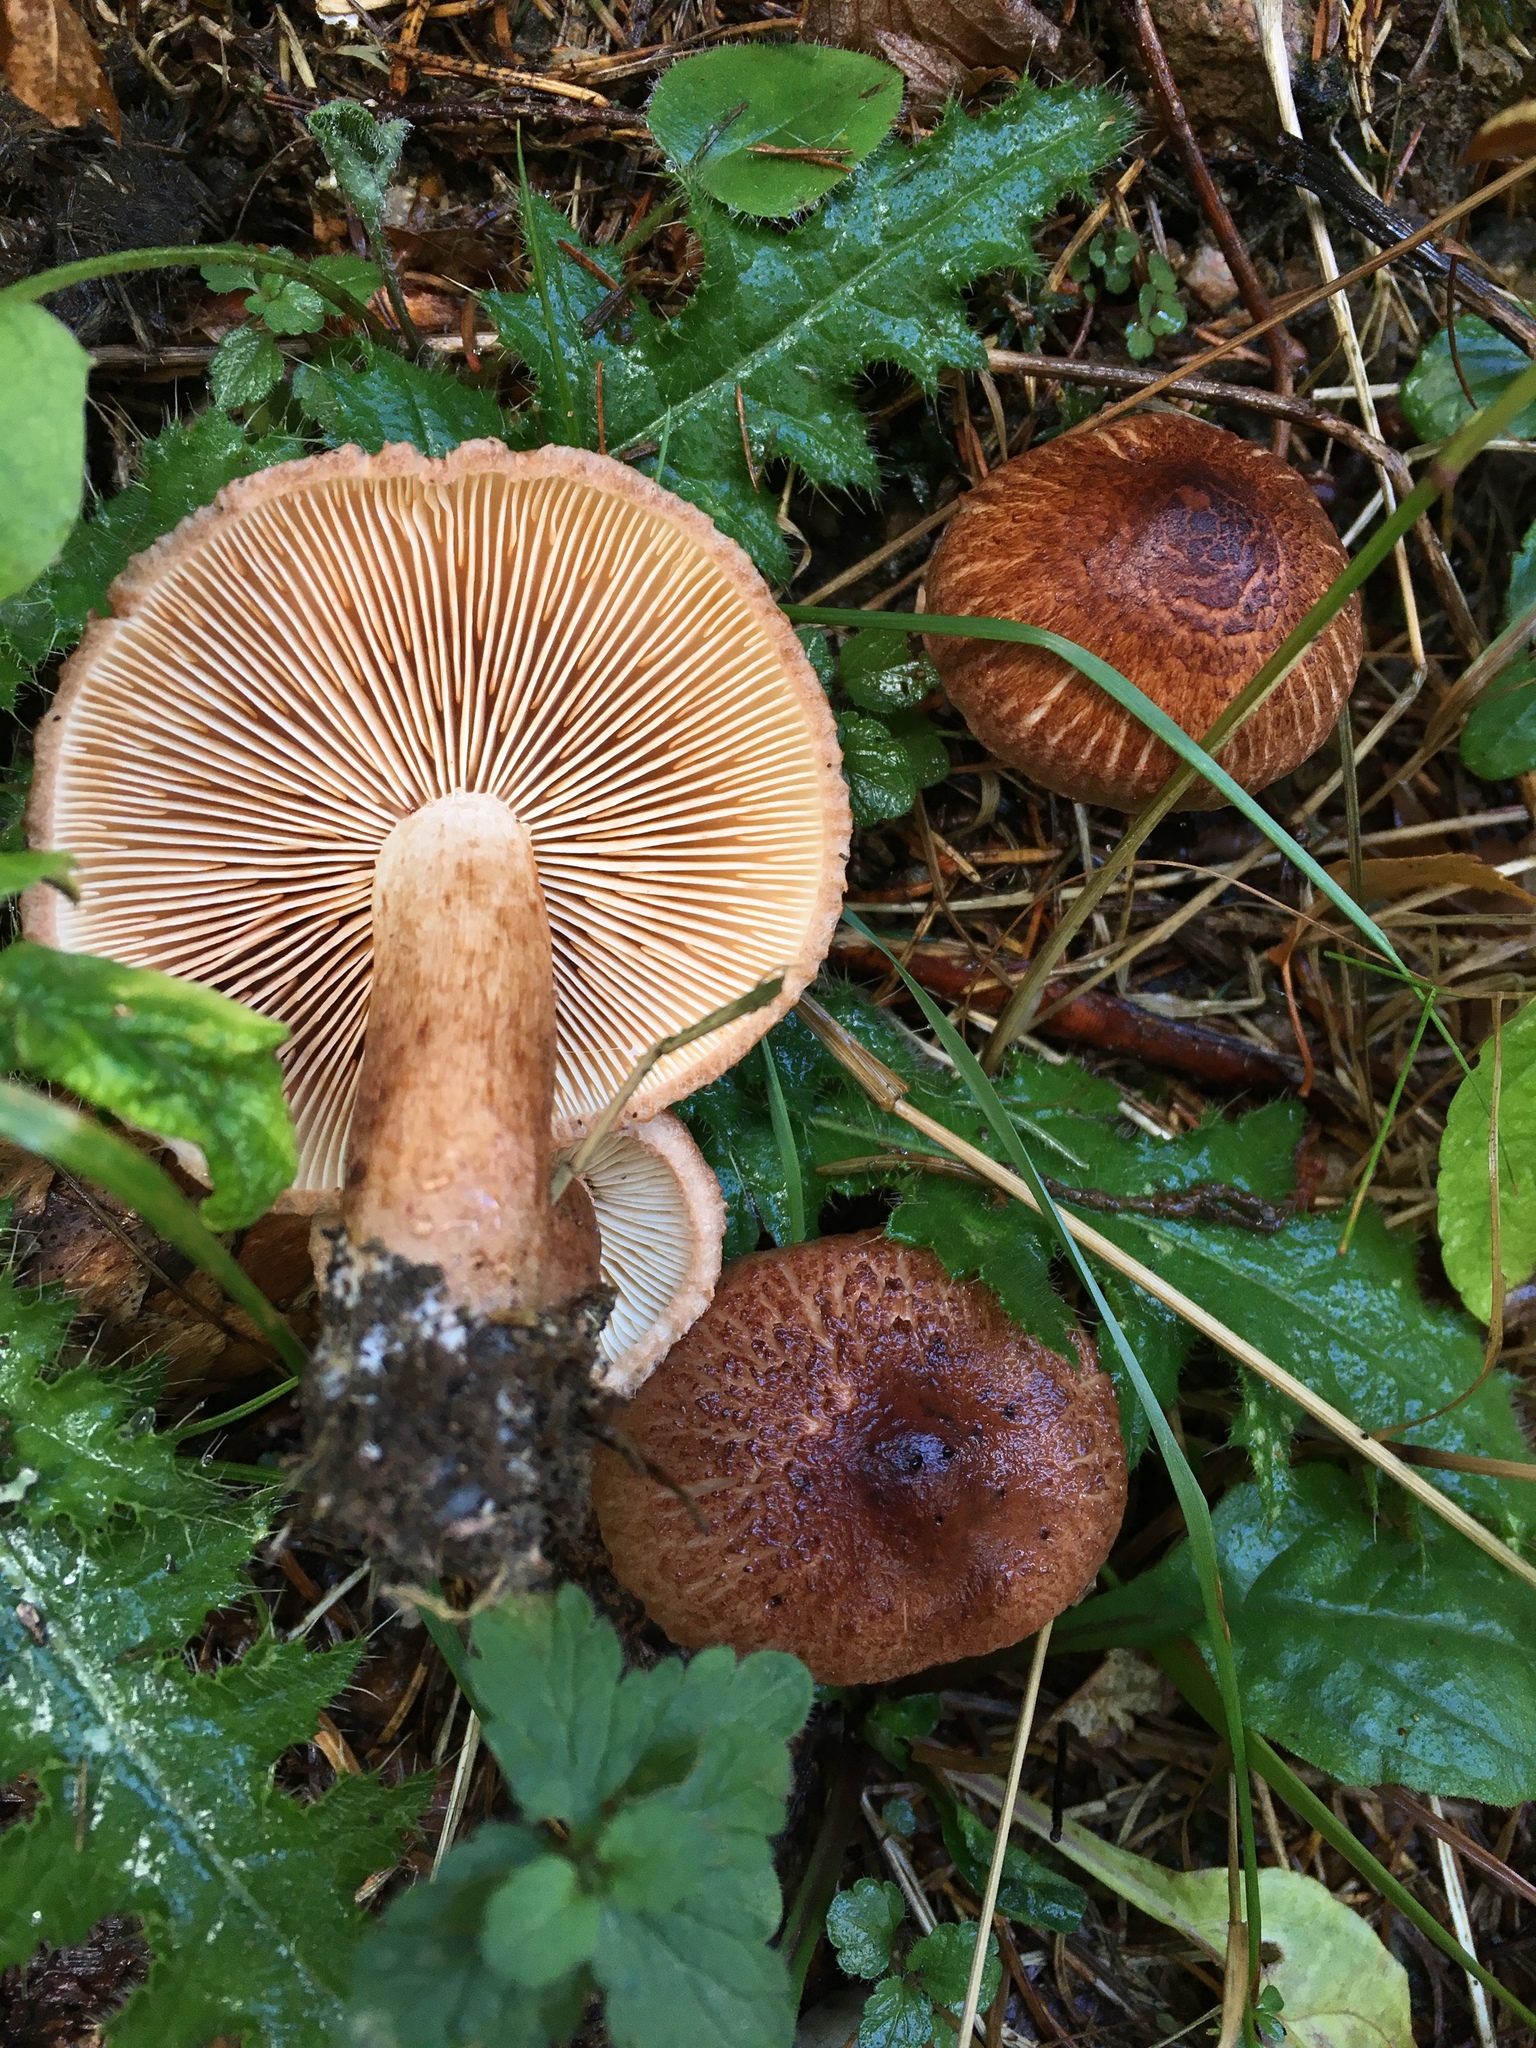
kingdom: Fungi
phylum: Basidiomycota
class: Agaricomycetes
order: Agaricales
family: Tricholomataceae
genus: Tricholoma
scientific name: Tricholoma vaccinum
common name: Scaly knight
